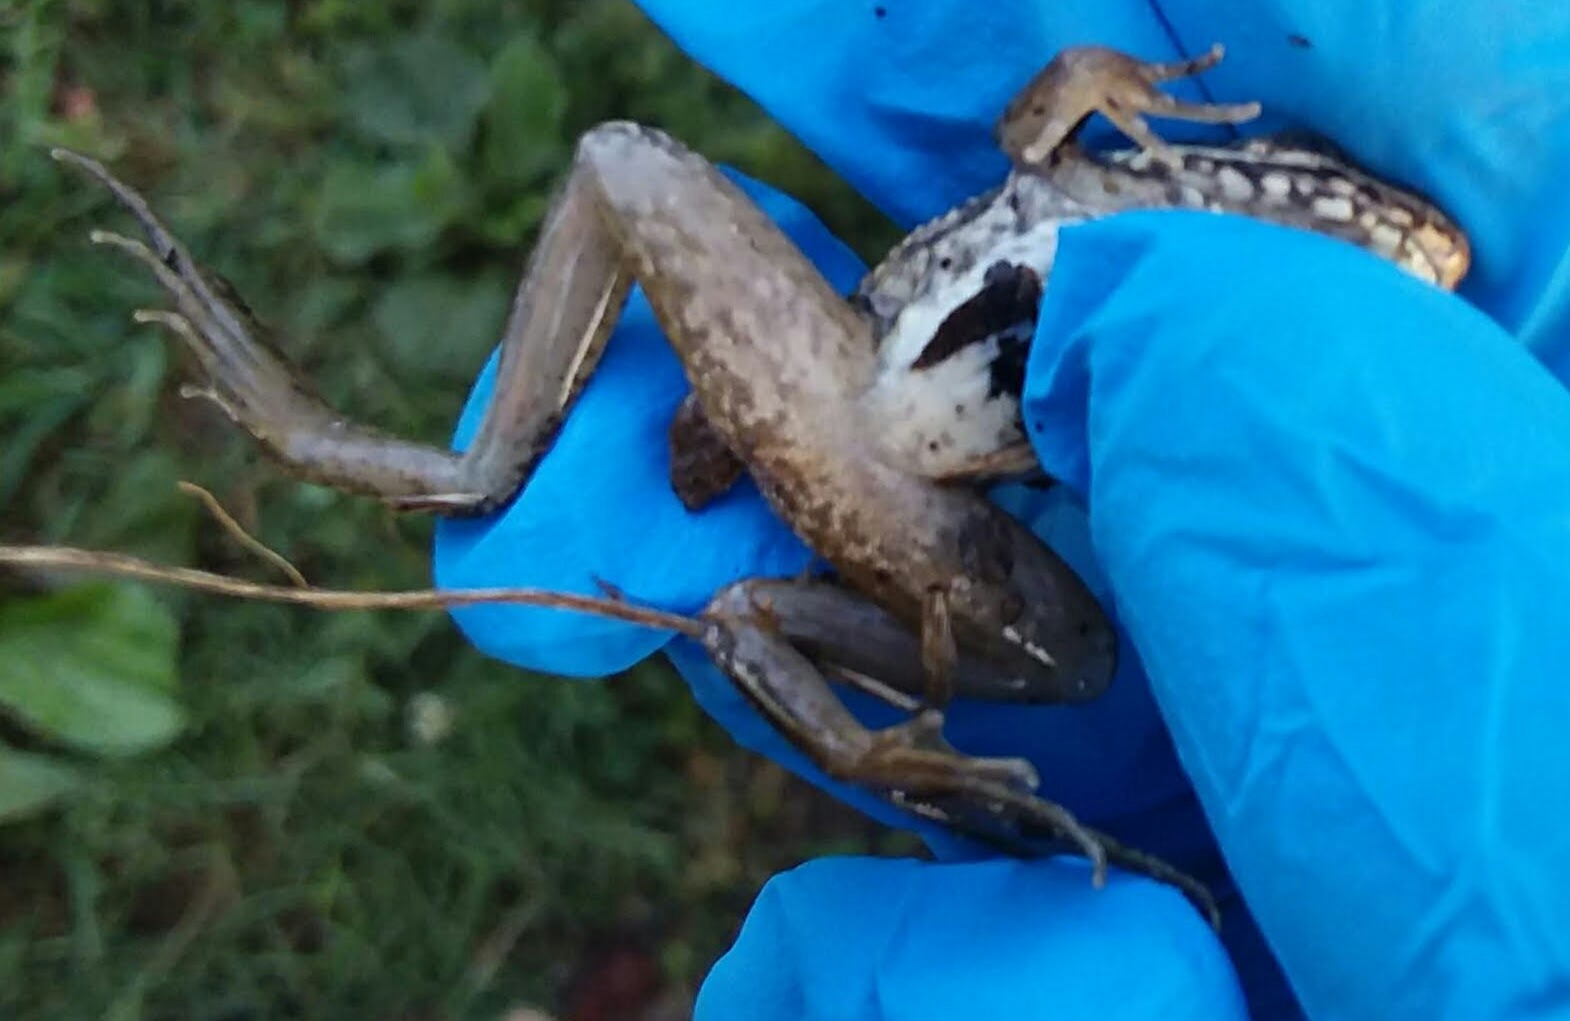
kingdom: Animalia
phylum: Chordata
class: Amphibia
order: Anura
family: Ranidae
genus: Lithobates
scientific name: Lithobates clamitans
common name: Green frog
